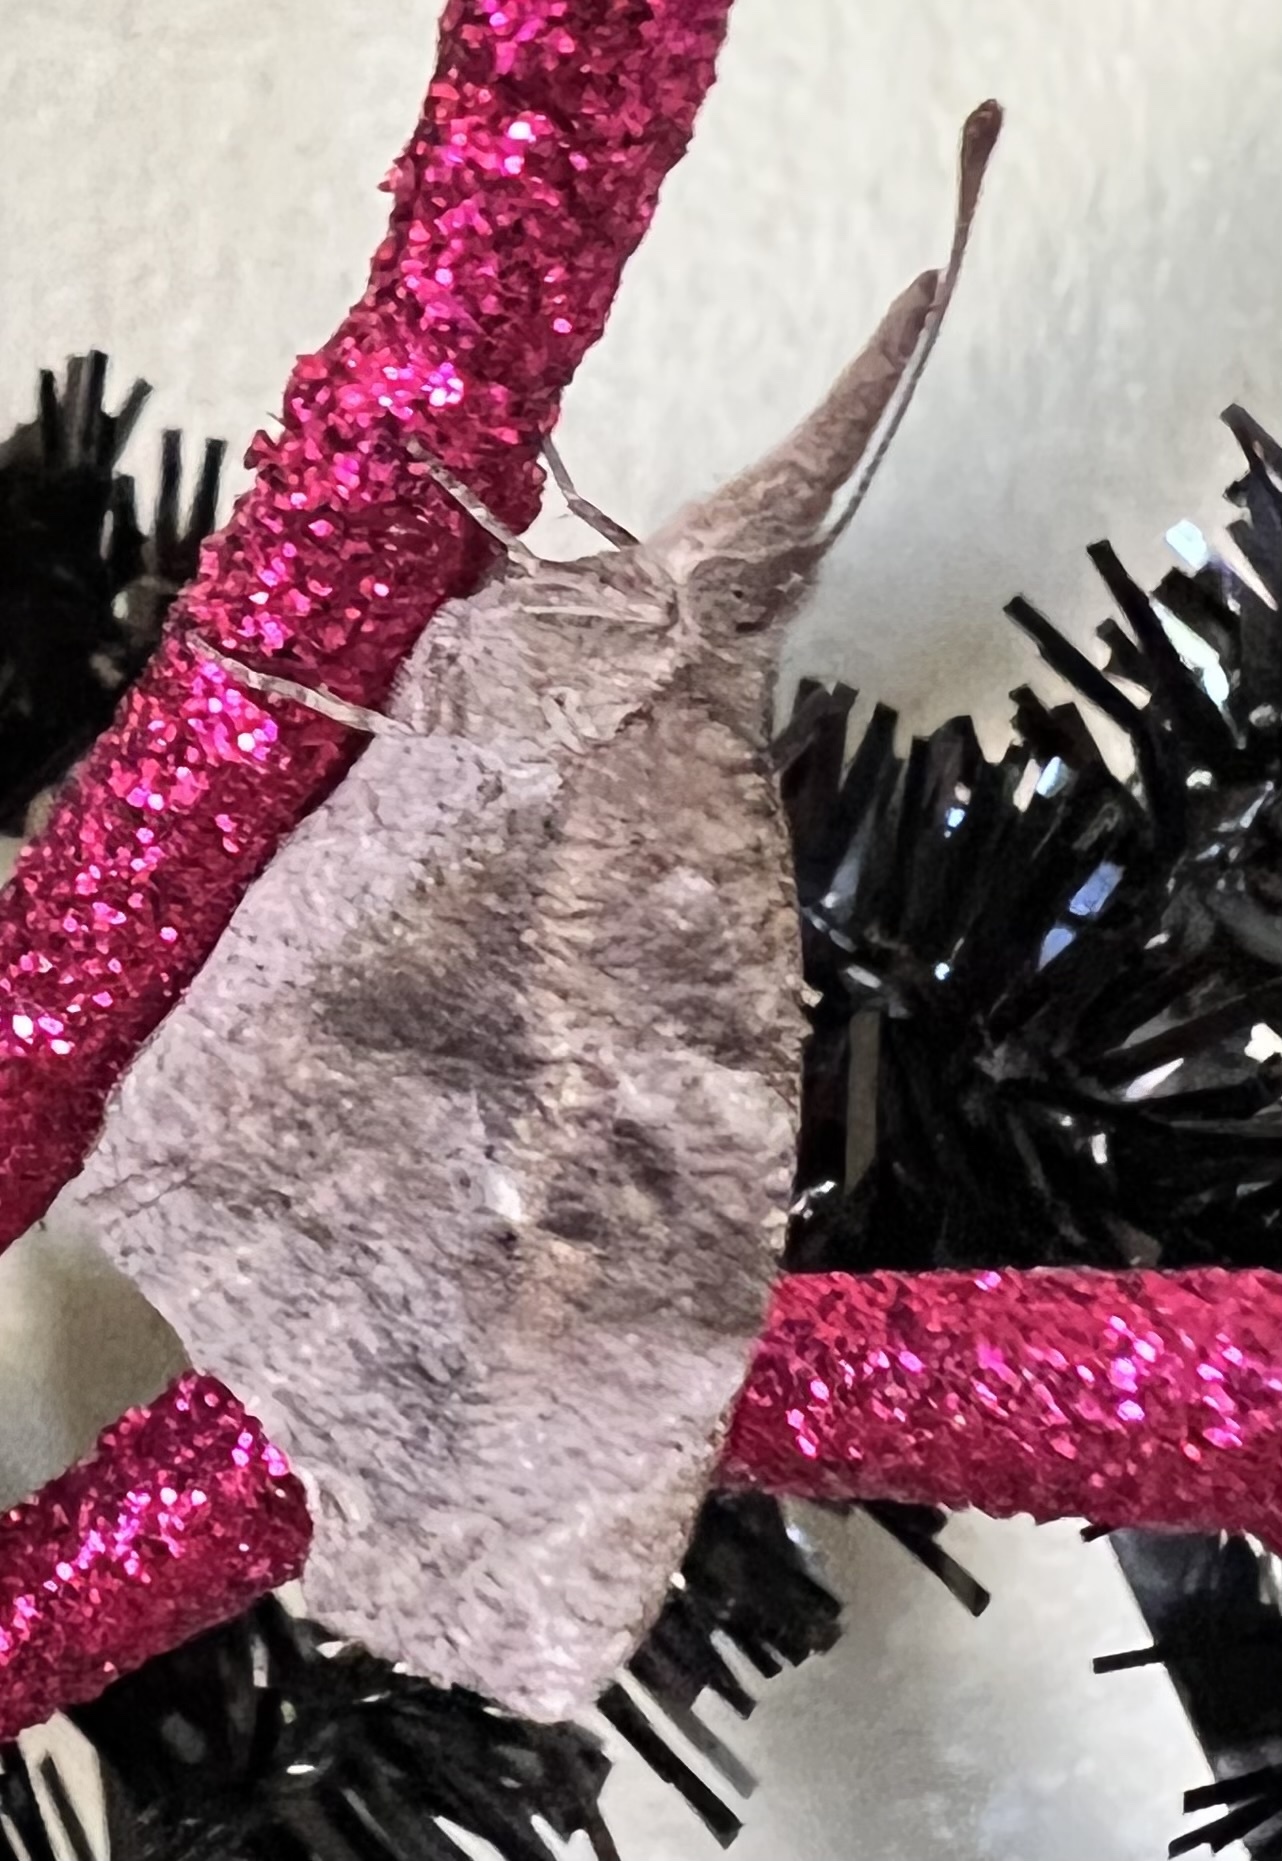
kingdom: Animalia
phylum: Arthropoda
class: Insecta
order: Lepidoptera
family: Nymphalidae
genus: Libytheana
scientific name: Libytheana carinenta
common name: American snout
